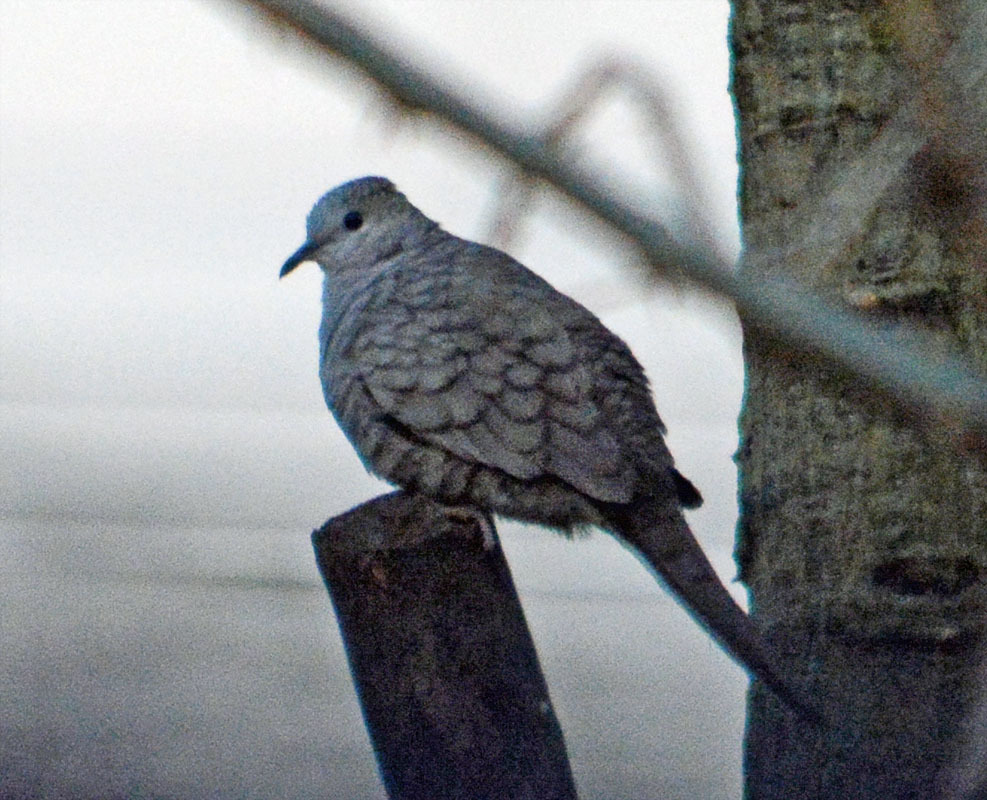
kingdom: Animalia
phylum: Chordata
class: Aves
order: Columbiformes
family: Columbidae
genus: Columbina
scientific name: Columbina inca
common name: Inca dove
